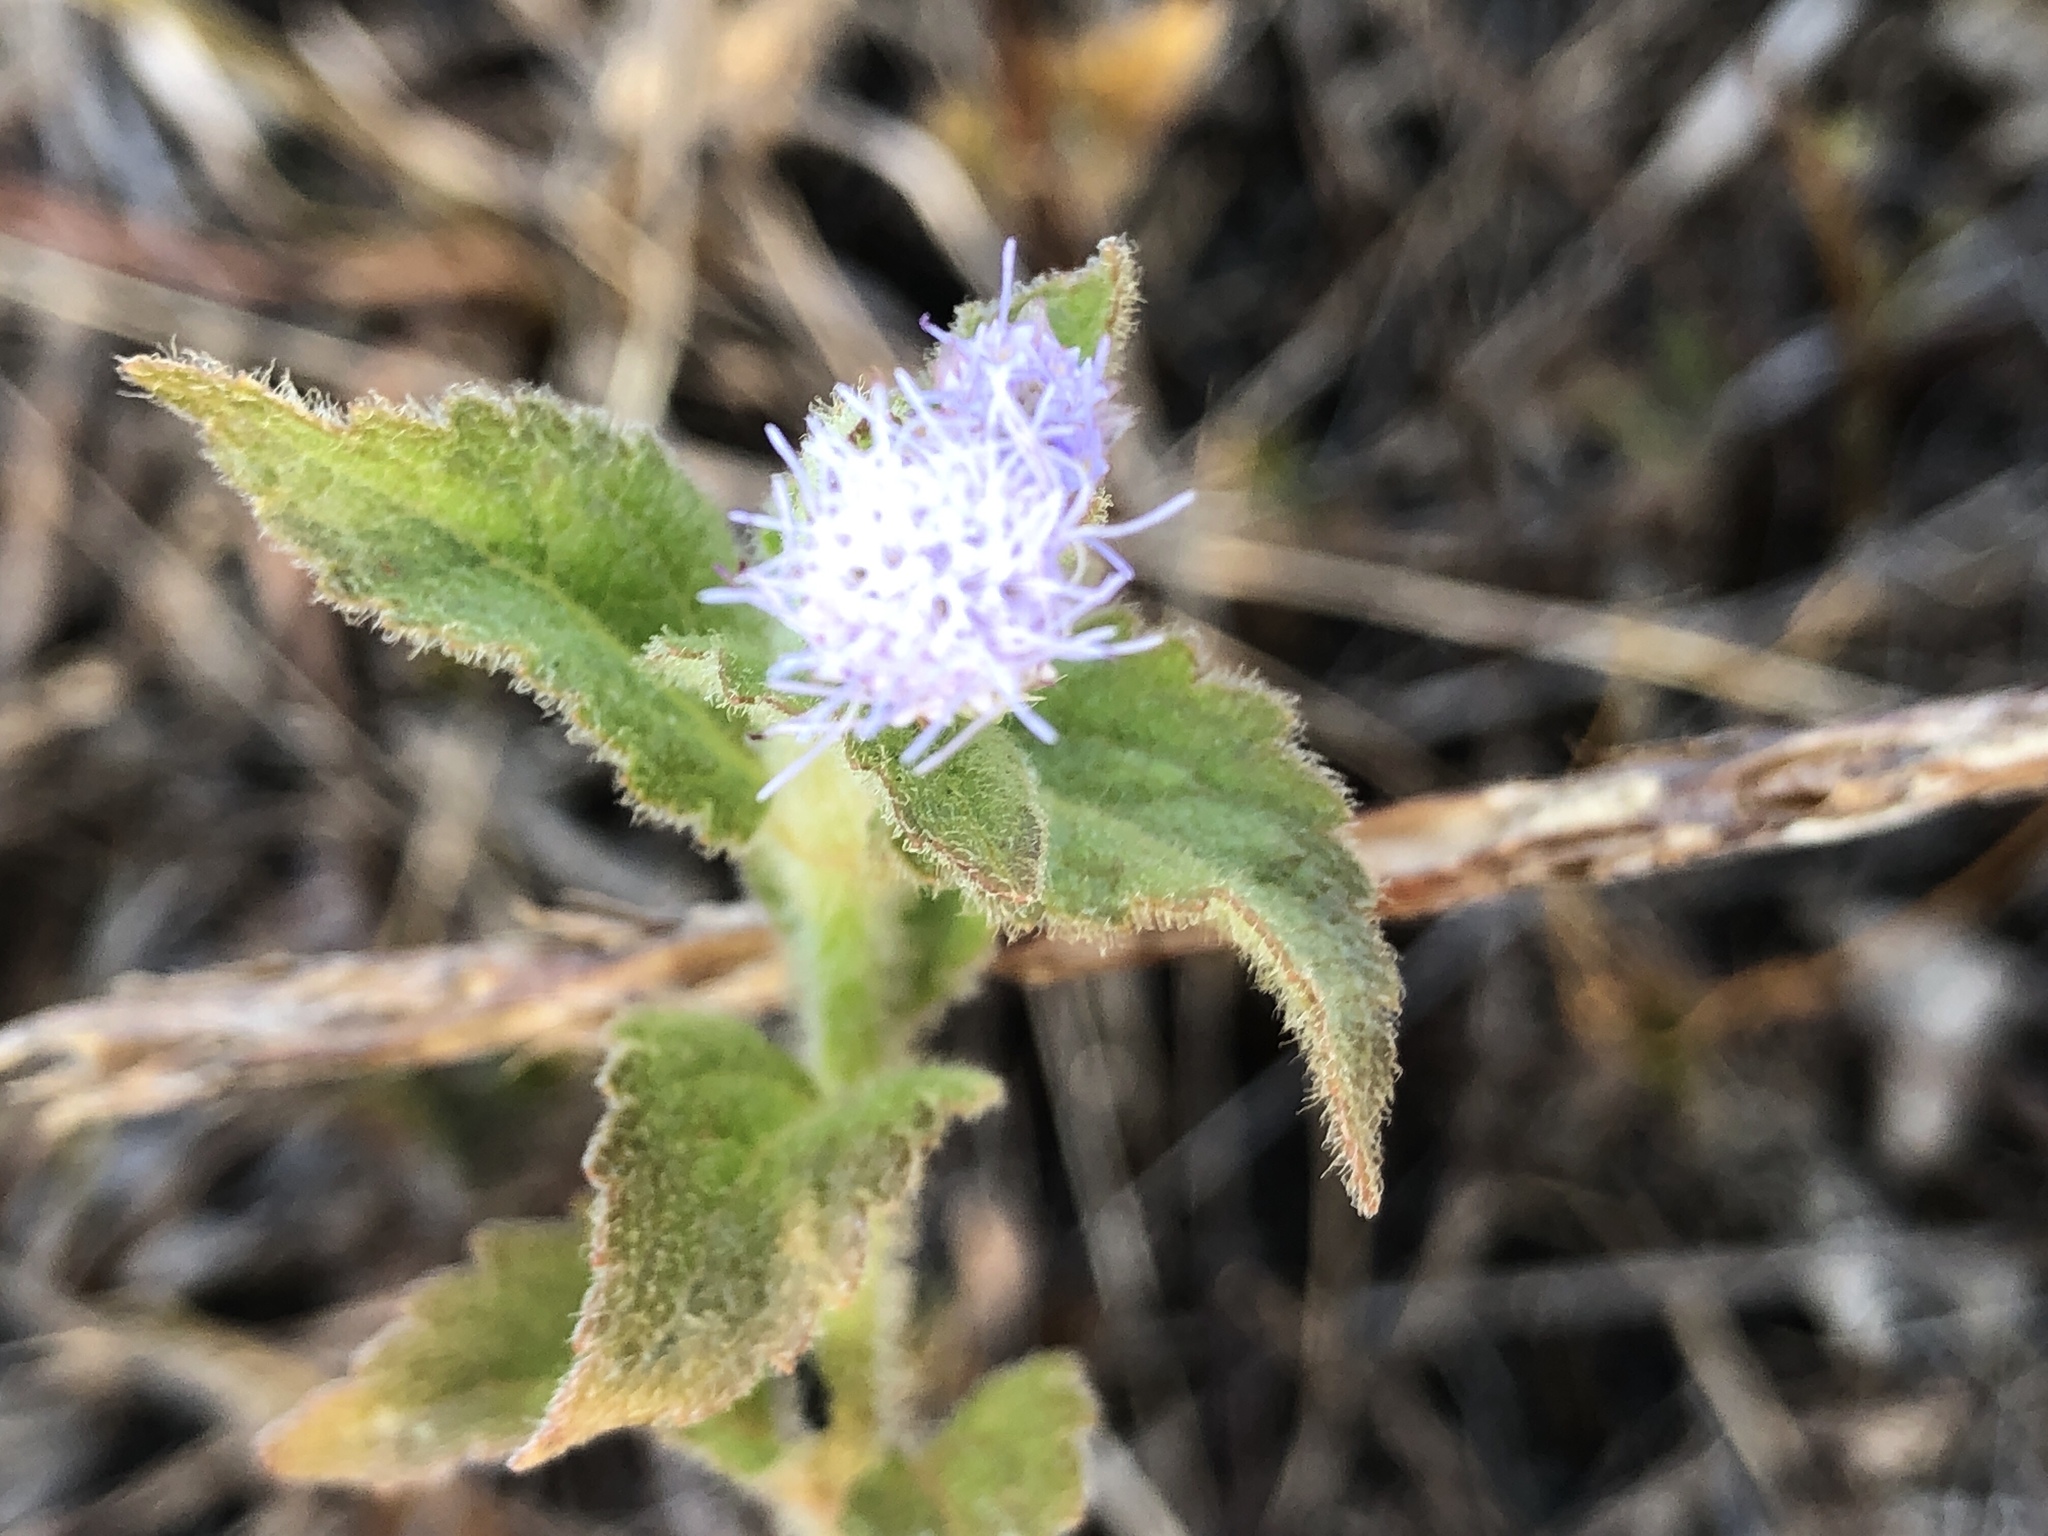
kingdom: Plantae
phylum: Tracheophyta
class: Magnoliopsida
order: Asterales
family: Asteraceae
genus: Praxelis
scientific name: Praxelis clematidea
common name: Praxelis
